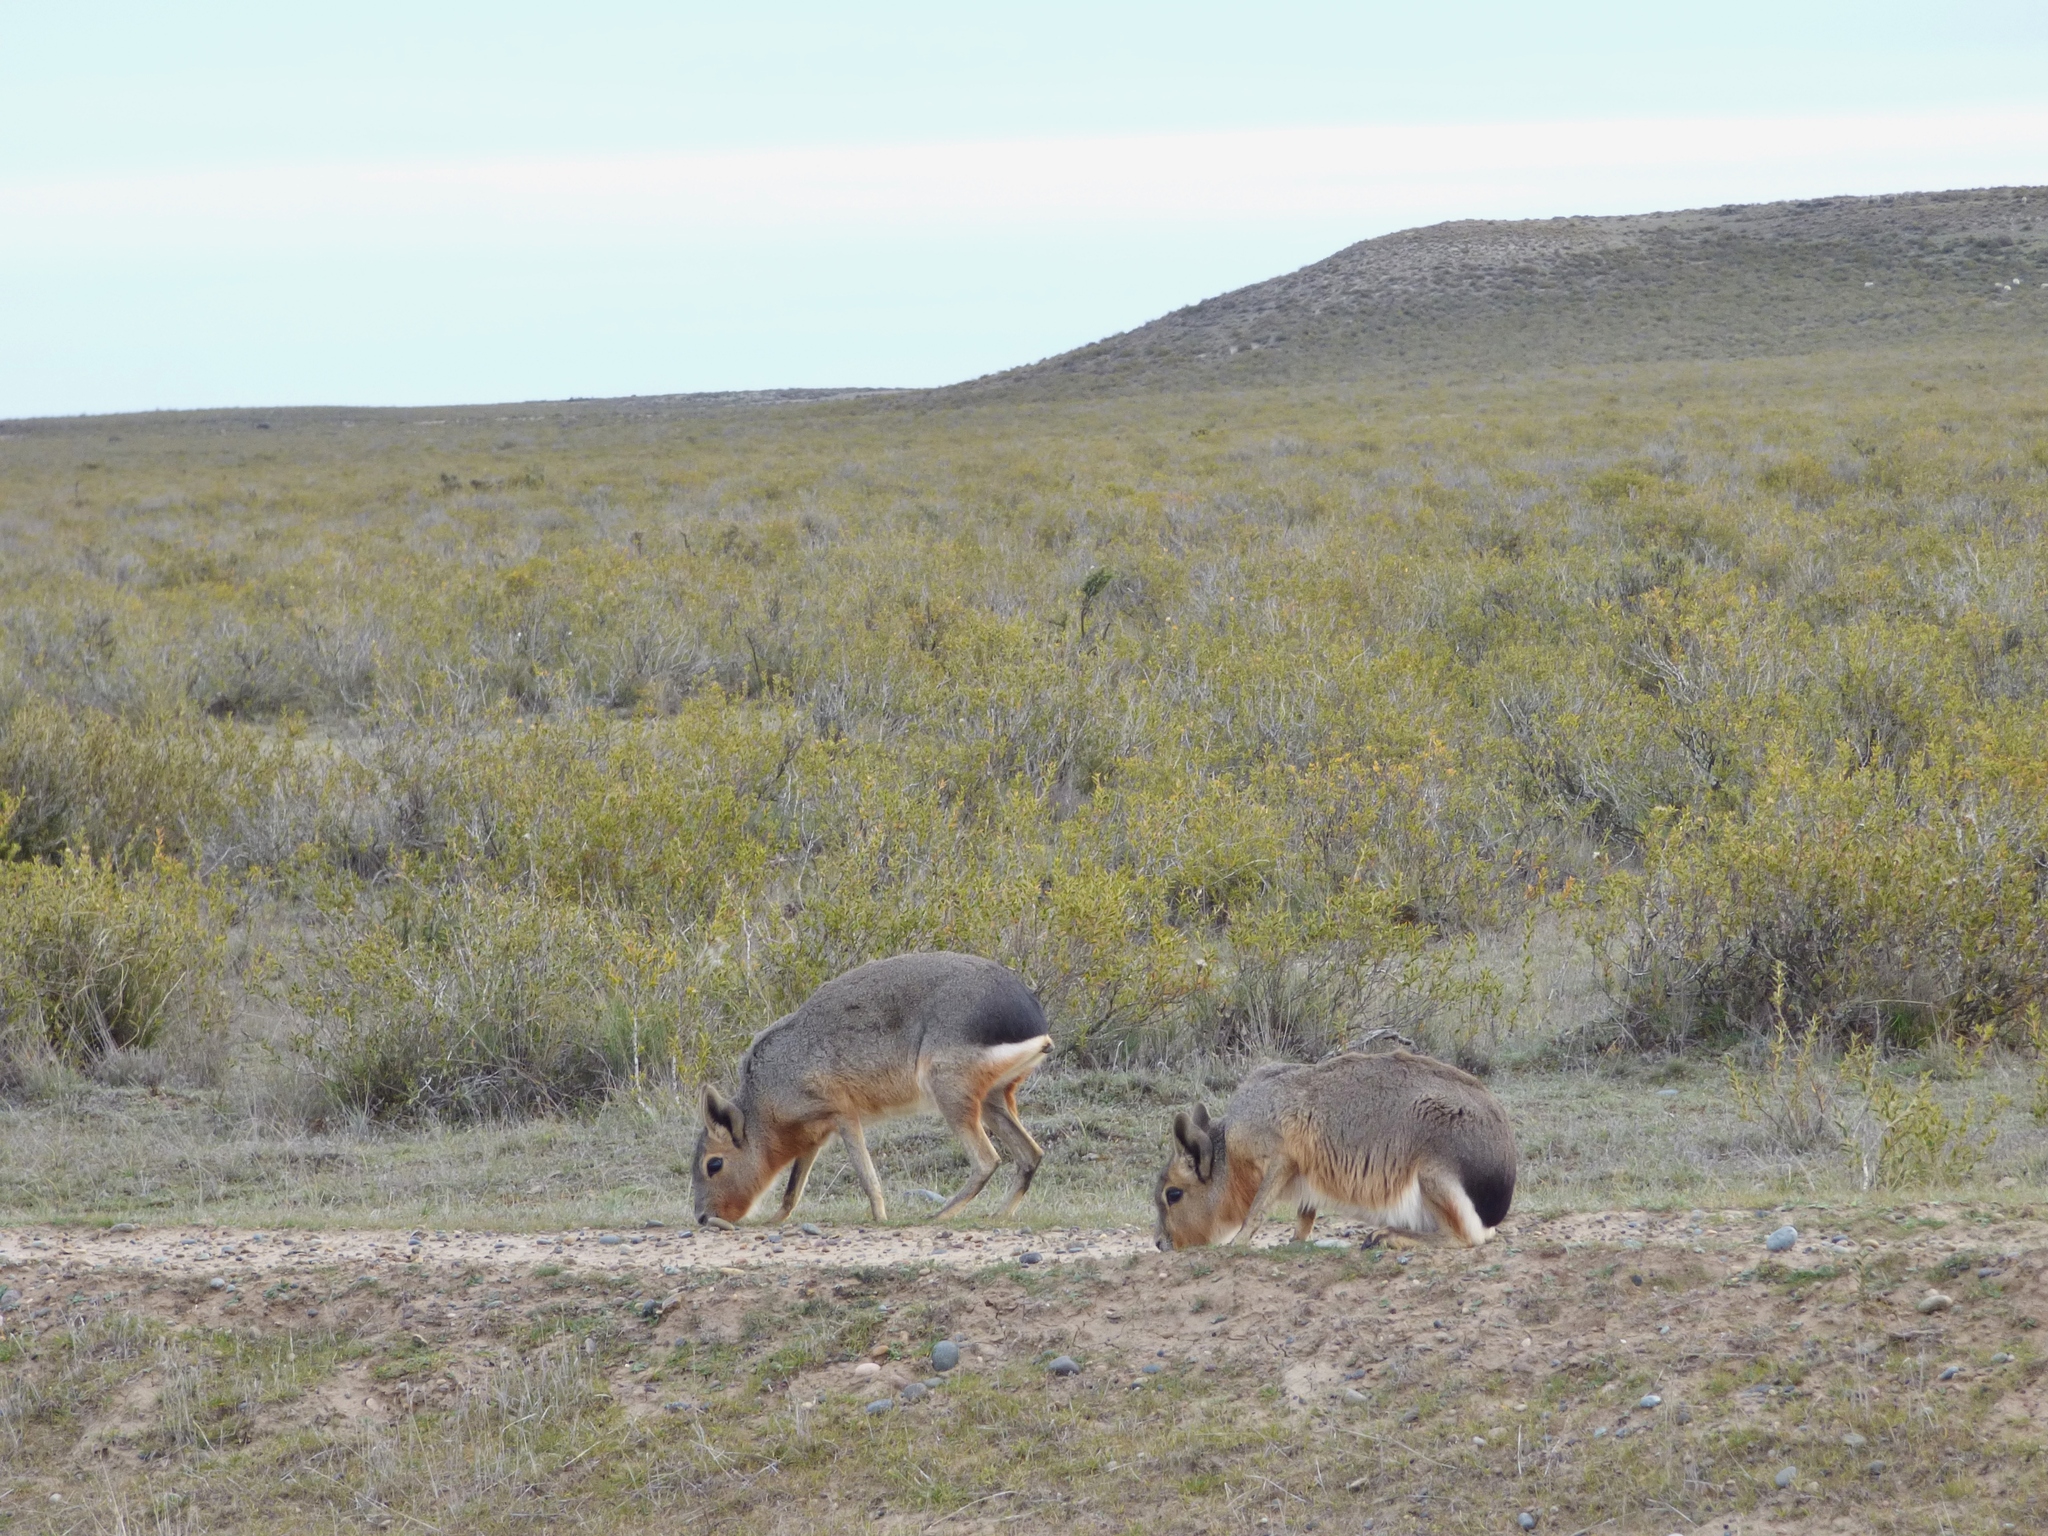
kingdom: Animalia
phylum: Chordata
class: Mammalia
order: Rodentia
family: Caviidae
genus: Dolichotis
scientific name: Dolichotis patagonum
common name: Patagonian mara
